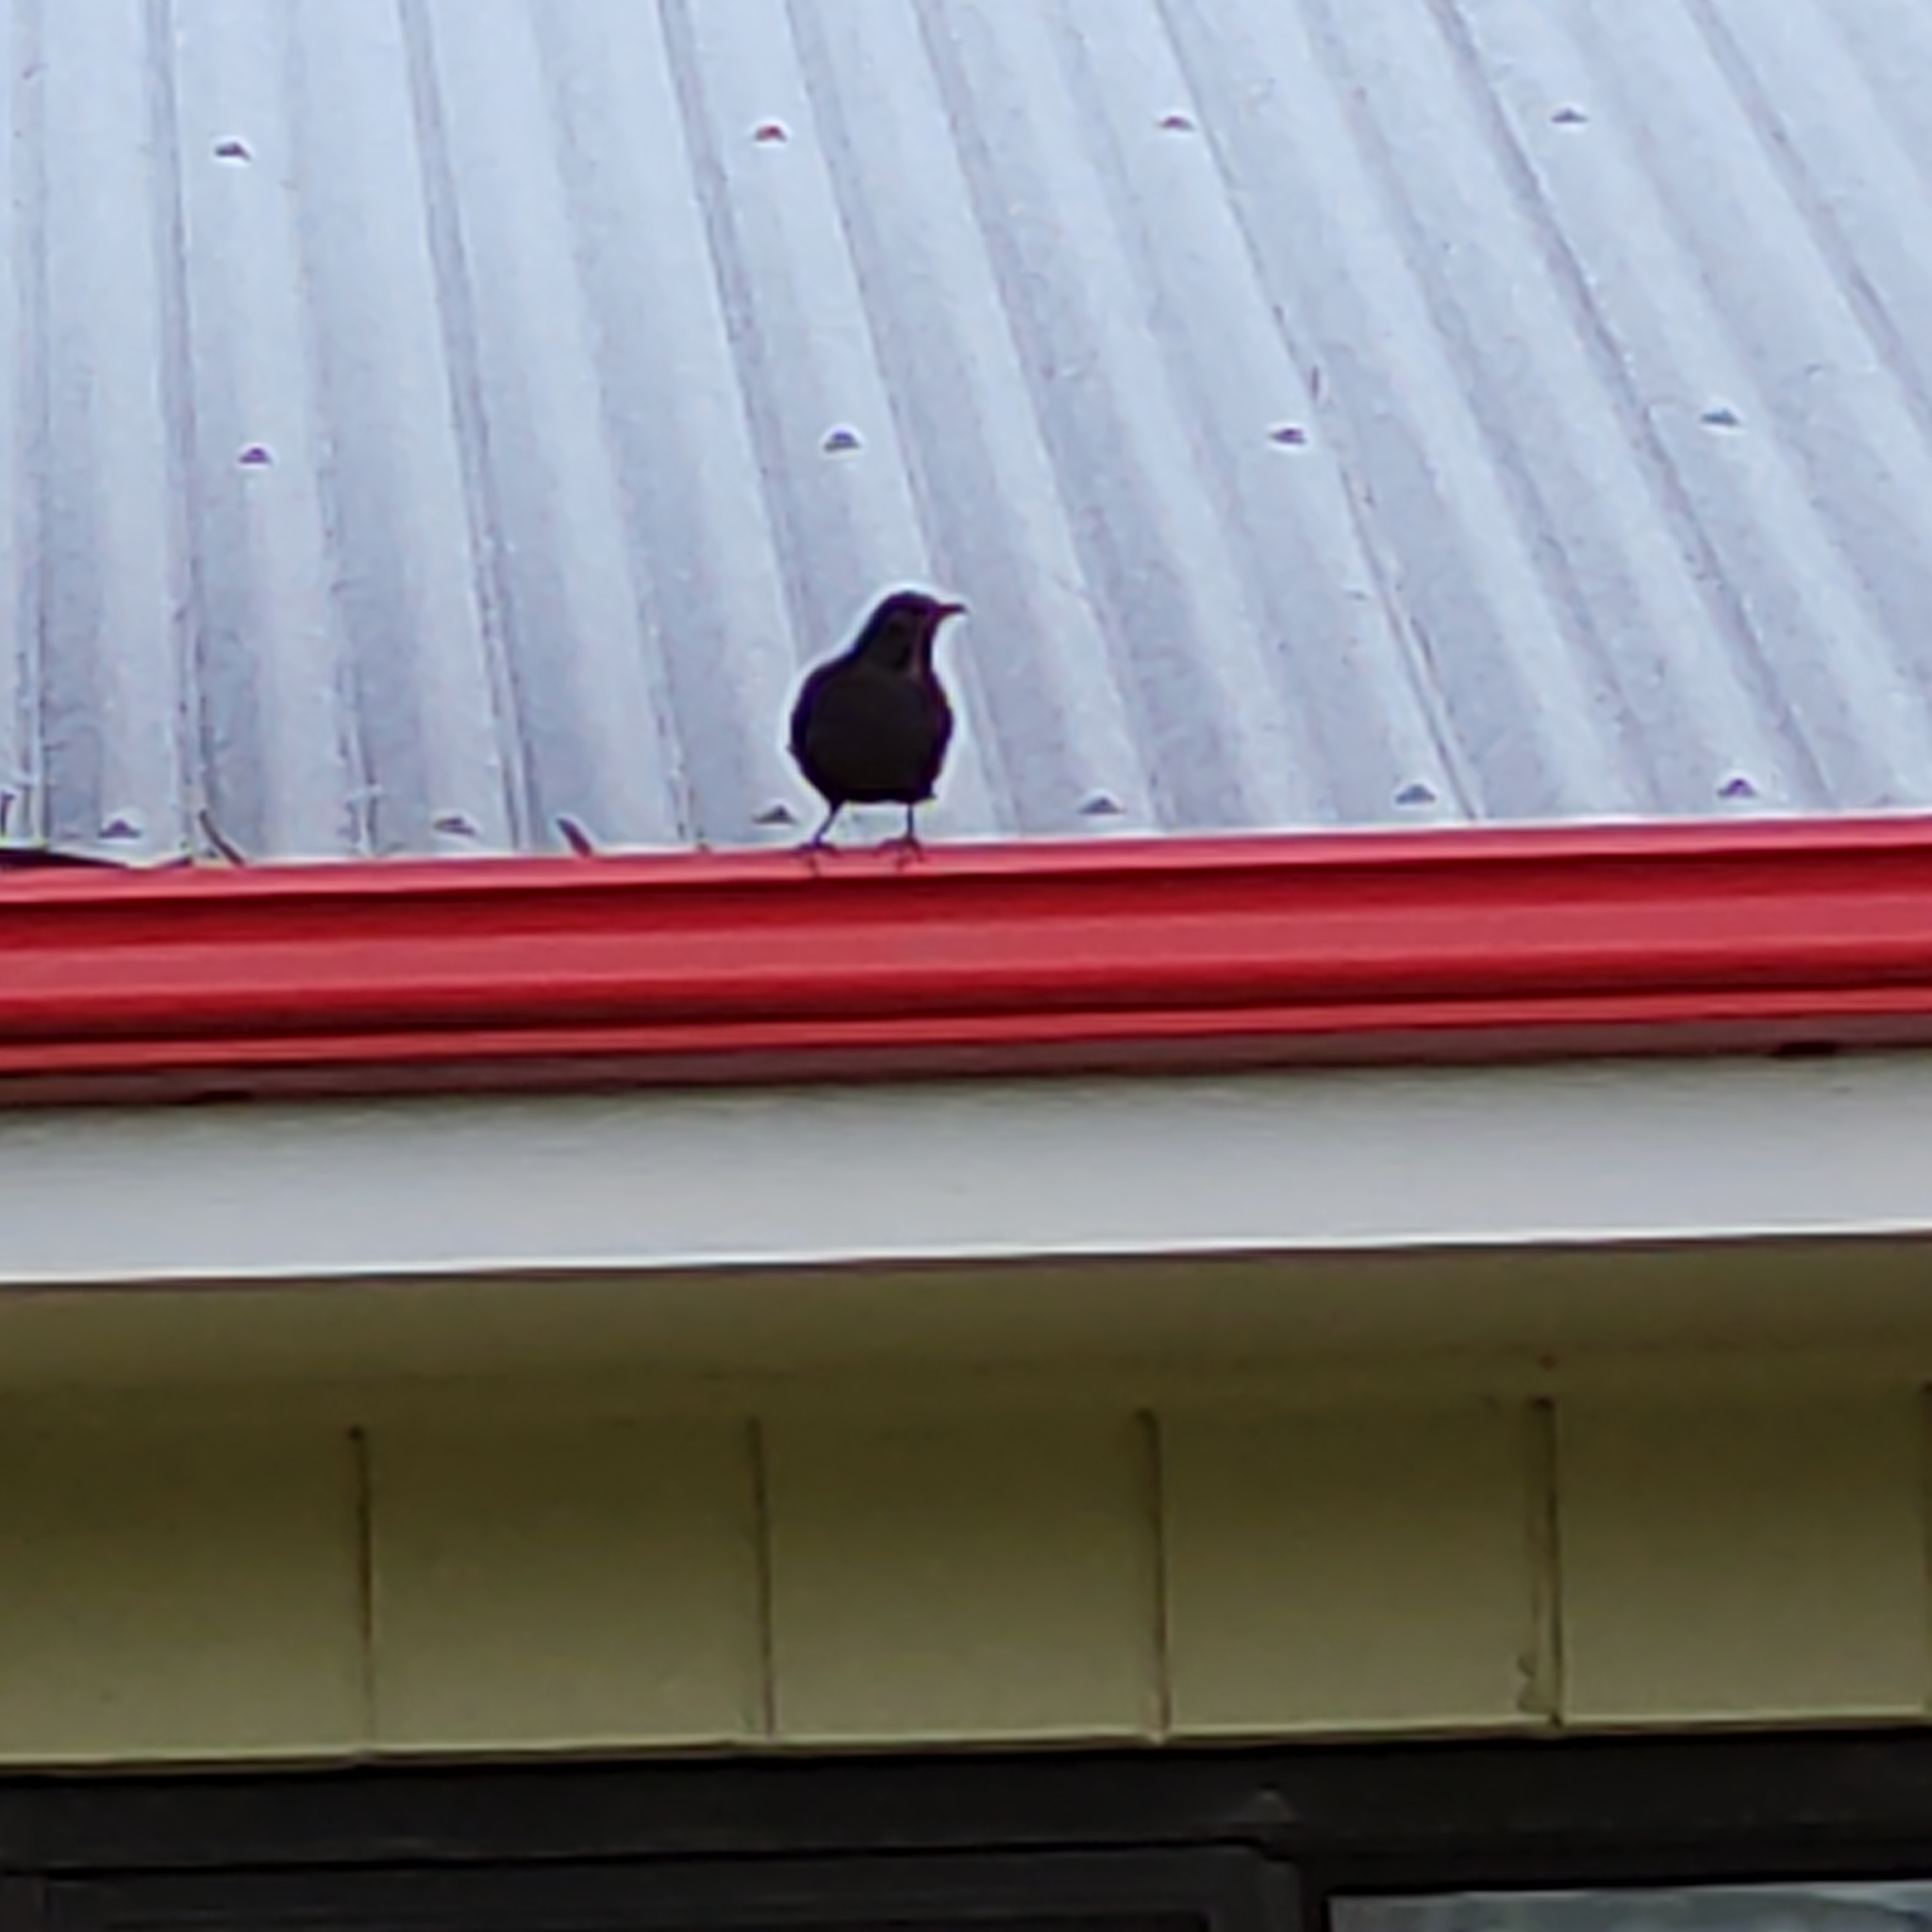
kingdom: Animalia
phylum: Chordata
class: Aves
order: Passeriformes
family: Turdidae
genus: Turdus
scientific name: Turdus merula
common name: Common blackbird
